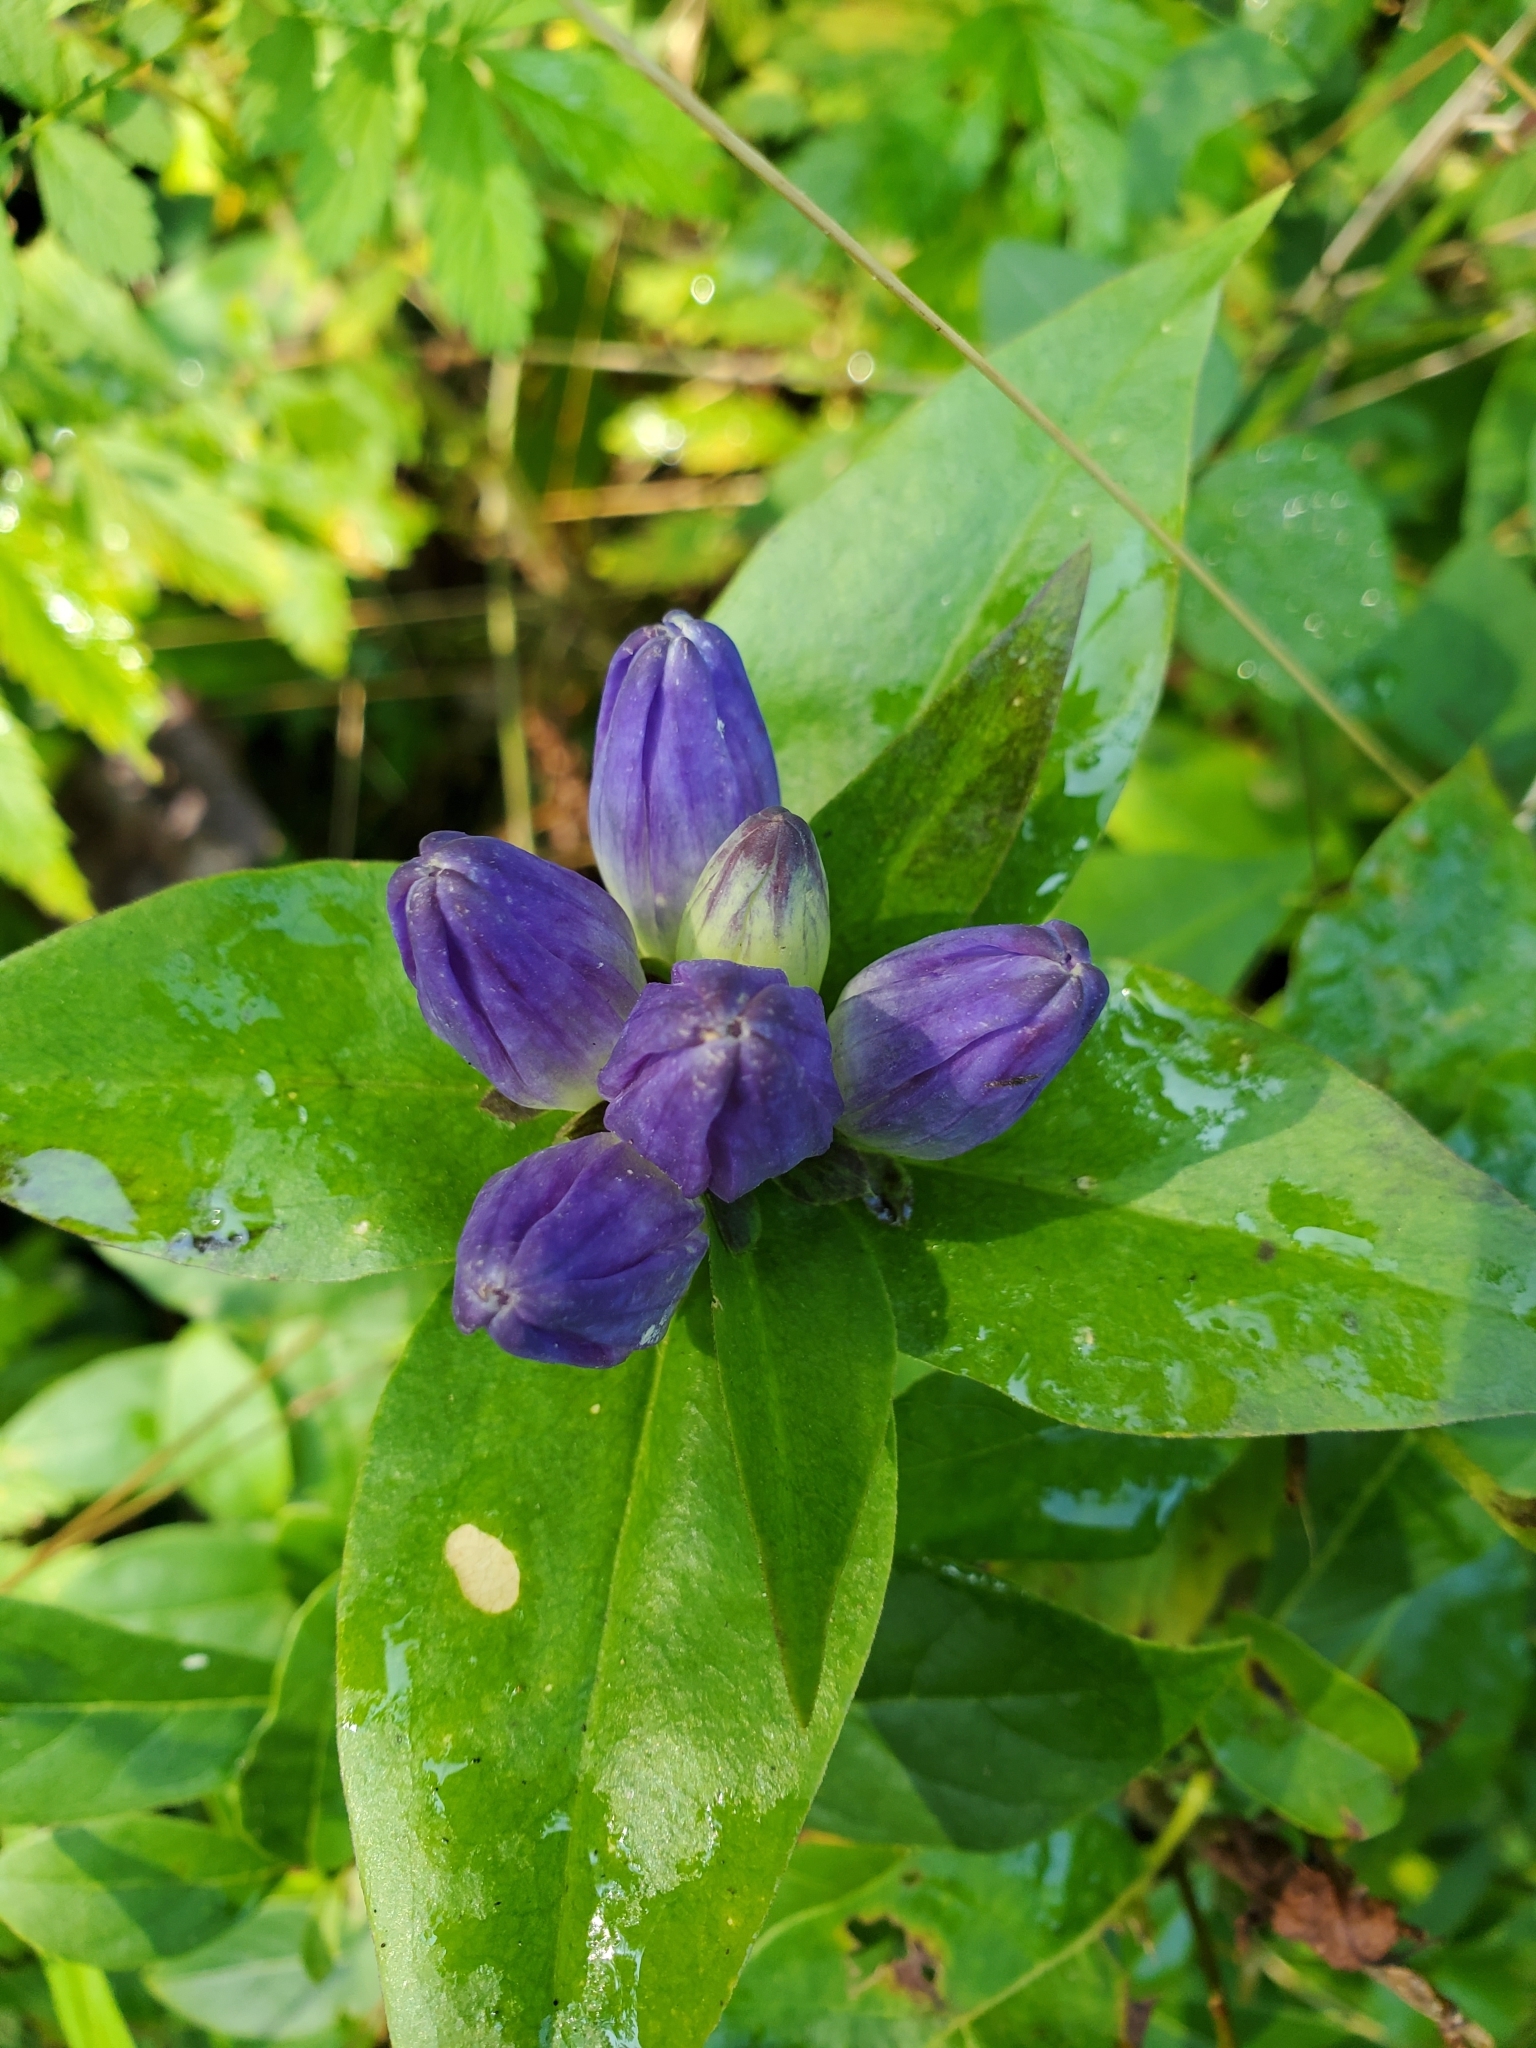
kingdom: Plantae
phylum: Tracheophyta
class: Magnoliopsida
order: Gentianales
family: Gentianaceae
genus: Gentiana
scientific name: Gentiana clausa
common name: Blind gentian
